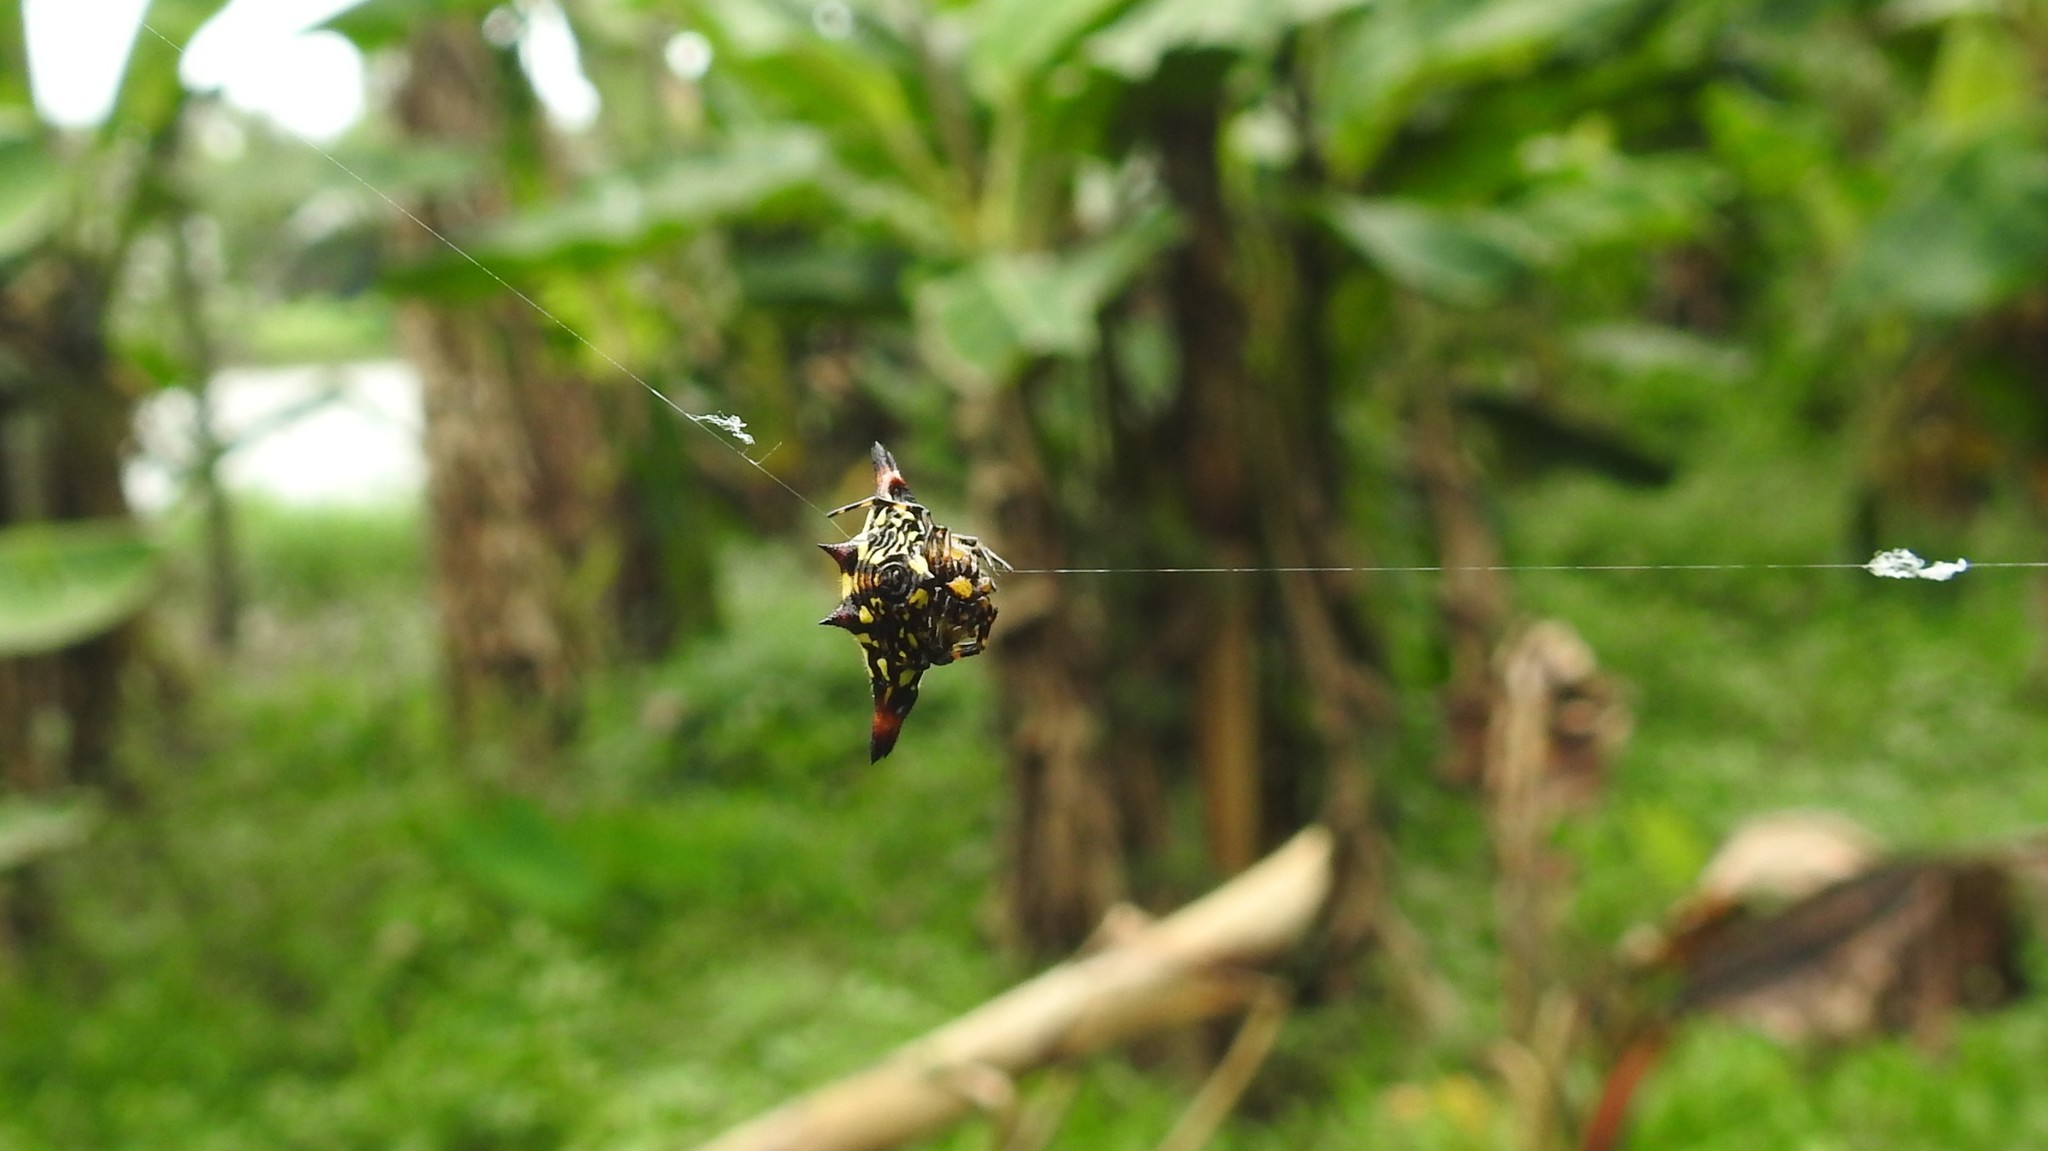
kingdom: Animalia
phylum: Arthropoda
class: Arachnida
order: Araneae
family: Araneidae
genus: Gasteracantha
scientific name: Gasteracantha geminata
